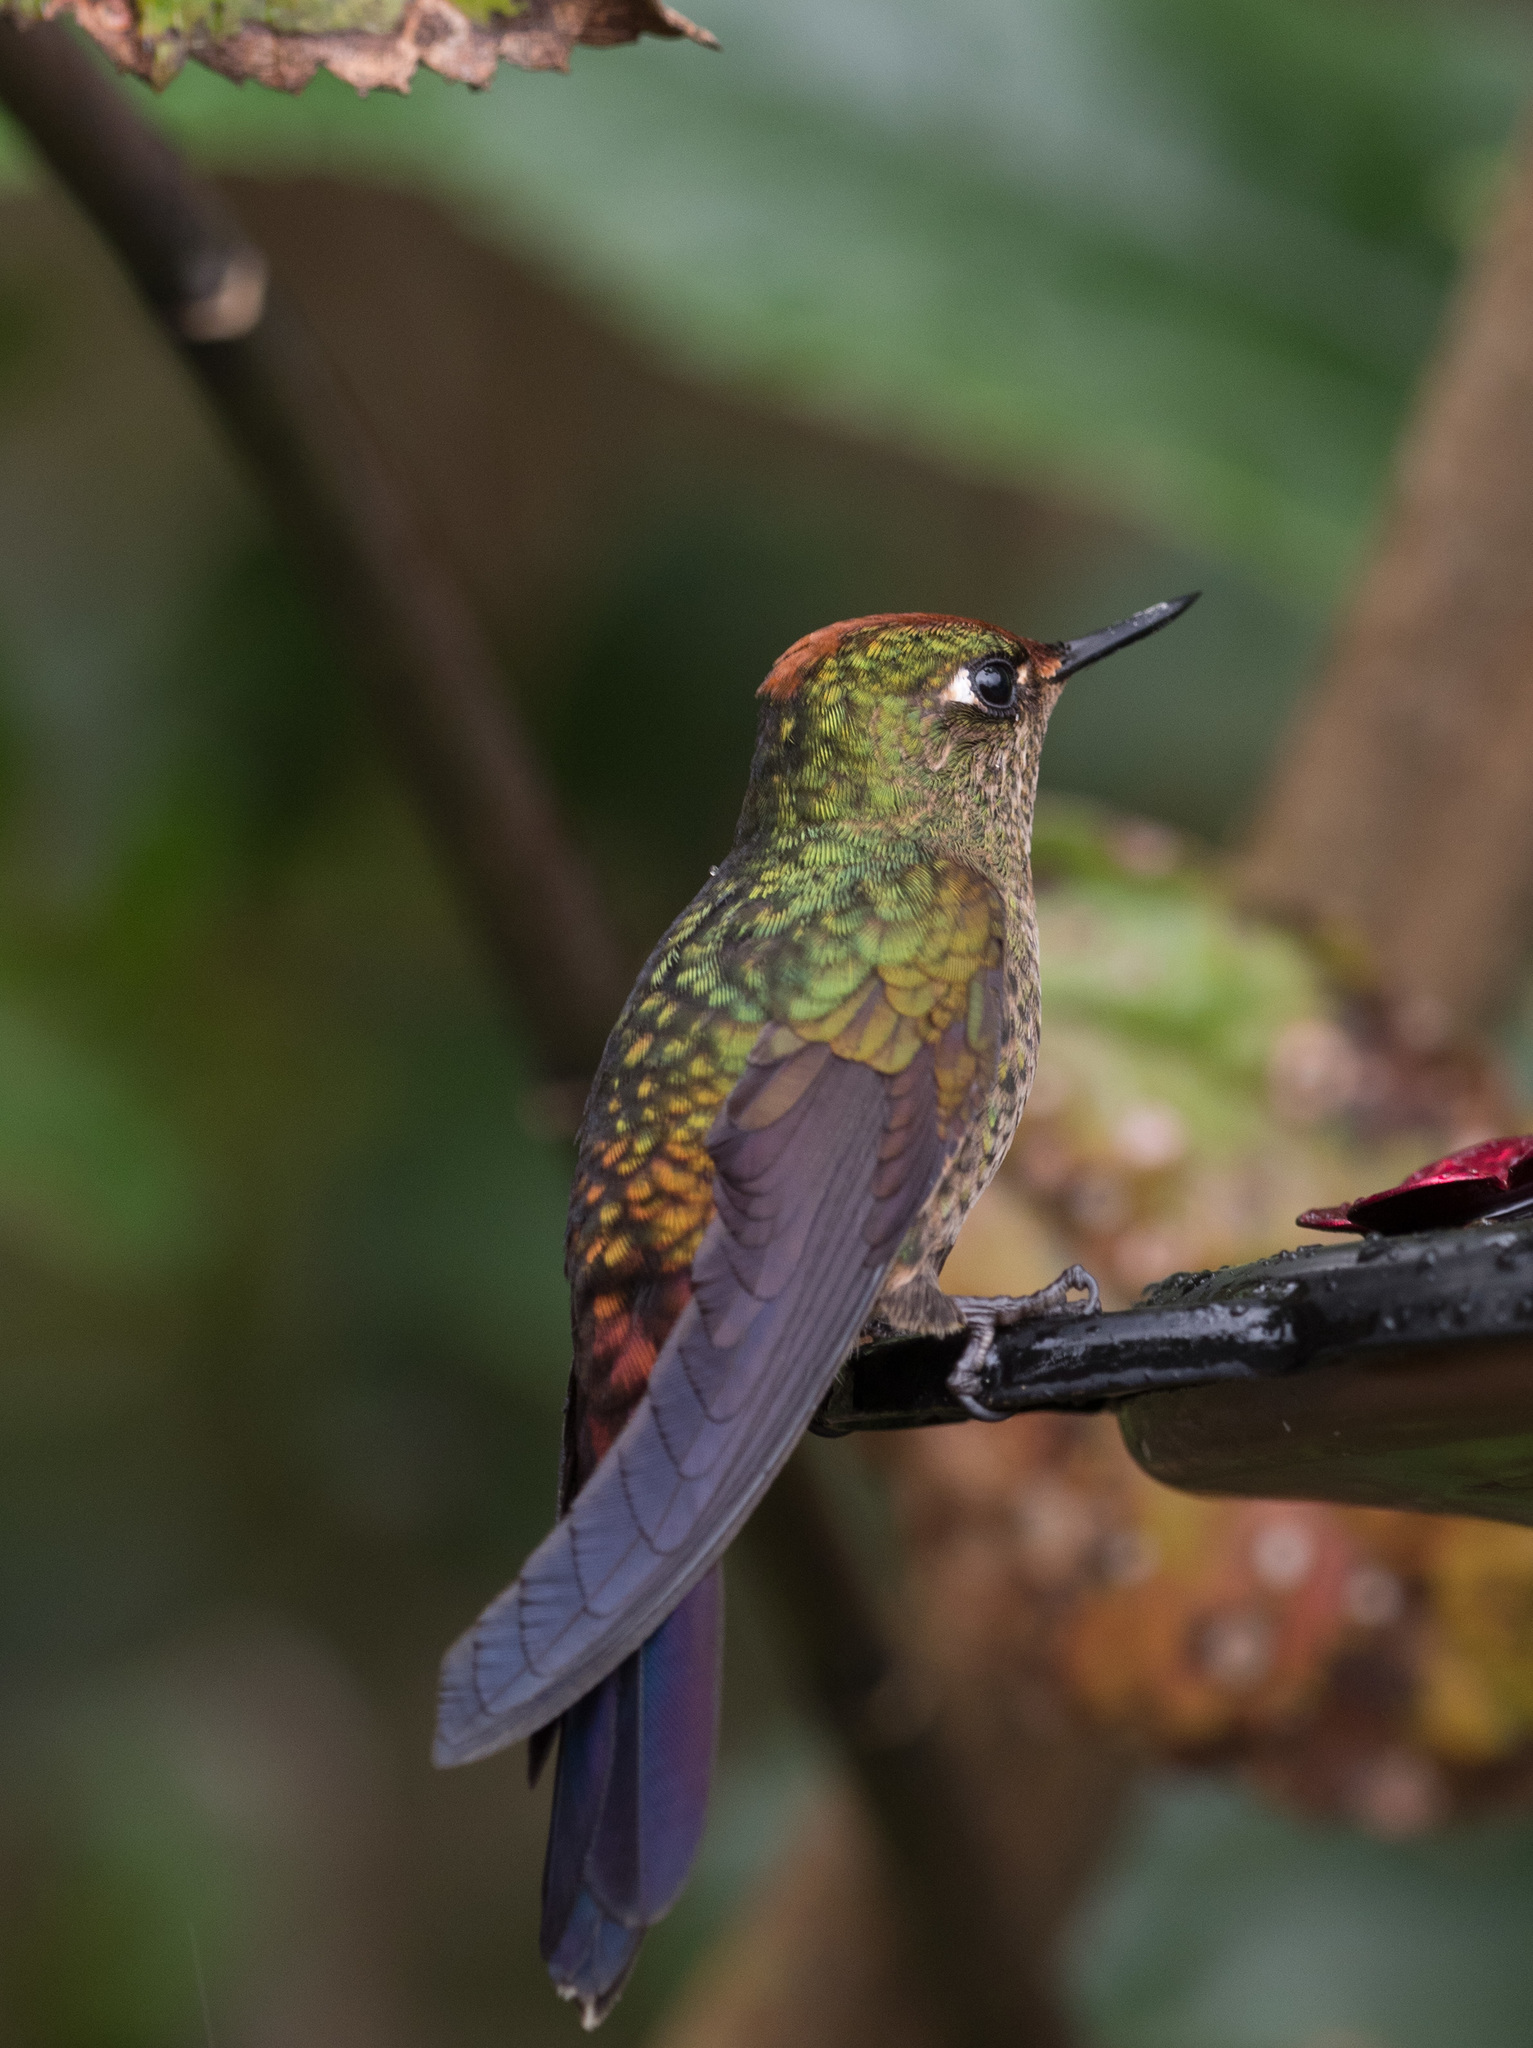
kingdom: Animalia
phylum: Chordata
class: Aves
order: Apodiformes
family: Trochilidae
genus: Chalcostigma
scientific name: Chalcostigma herrani
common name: Rainbow-bearded thornbill
